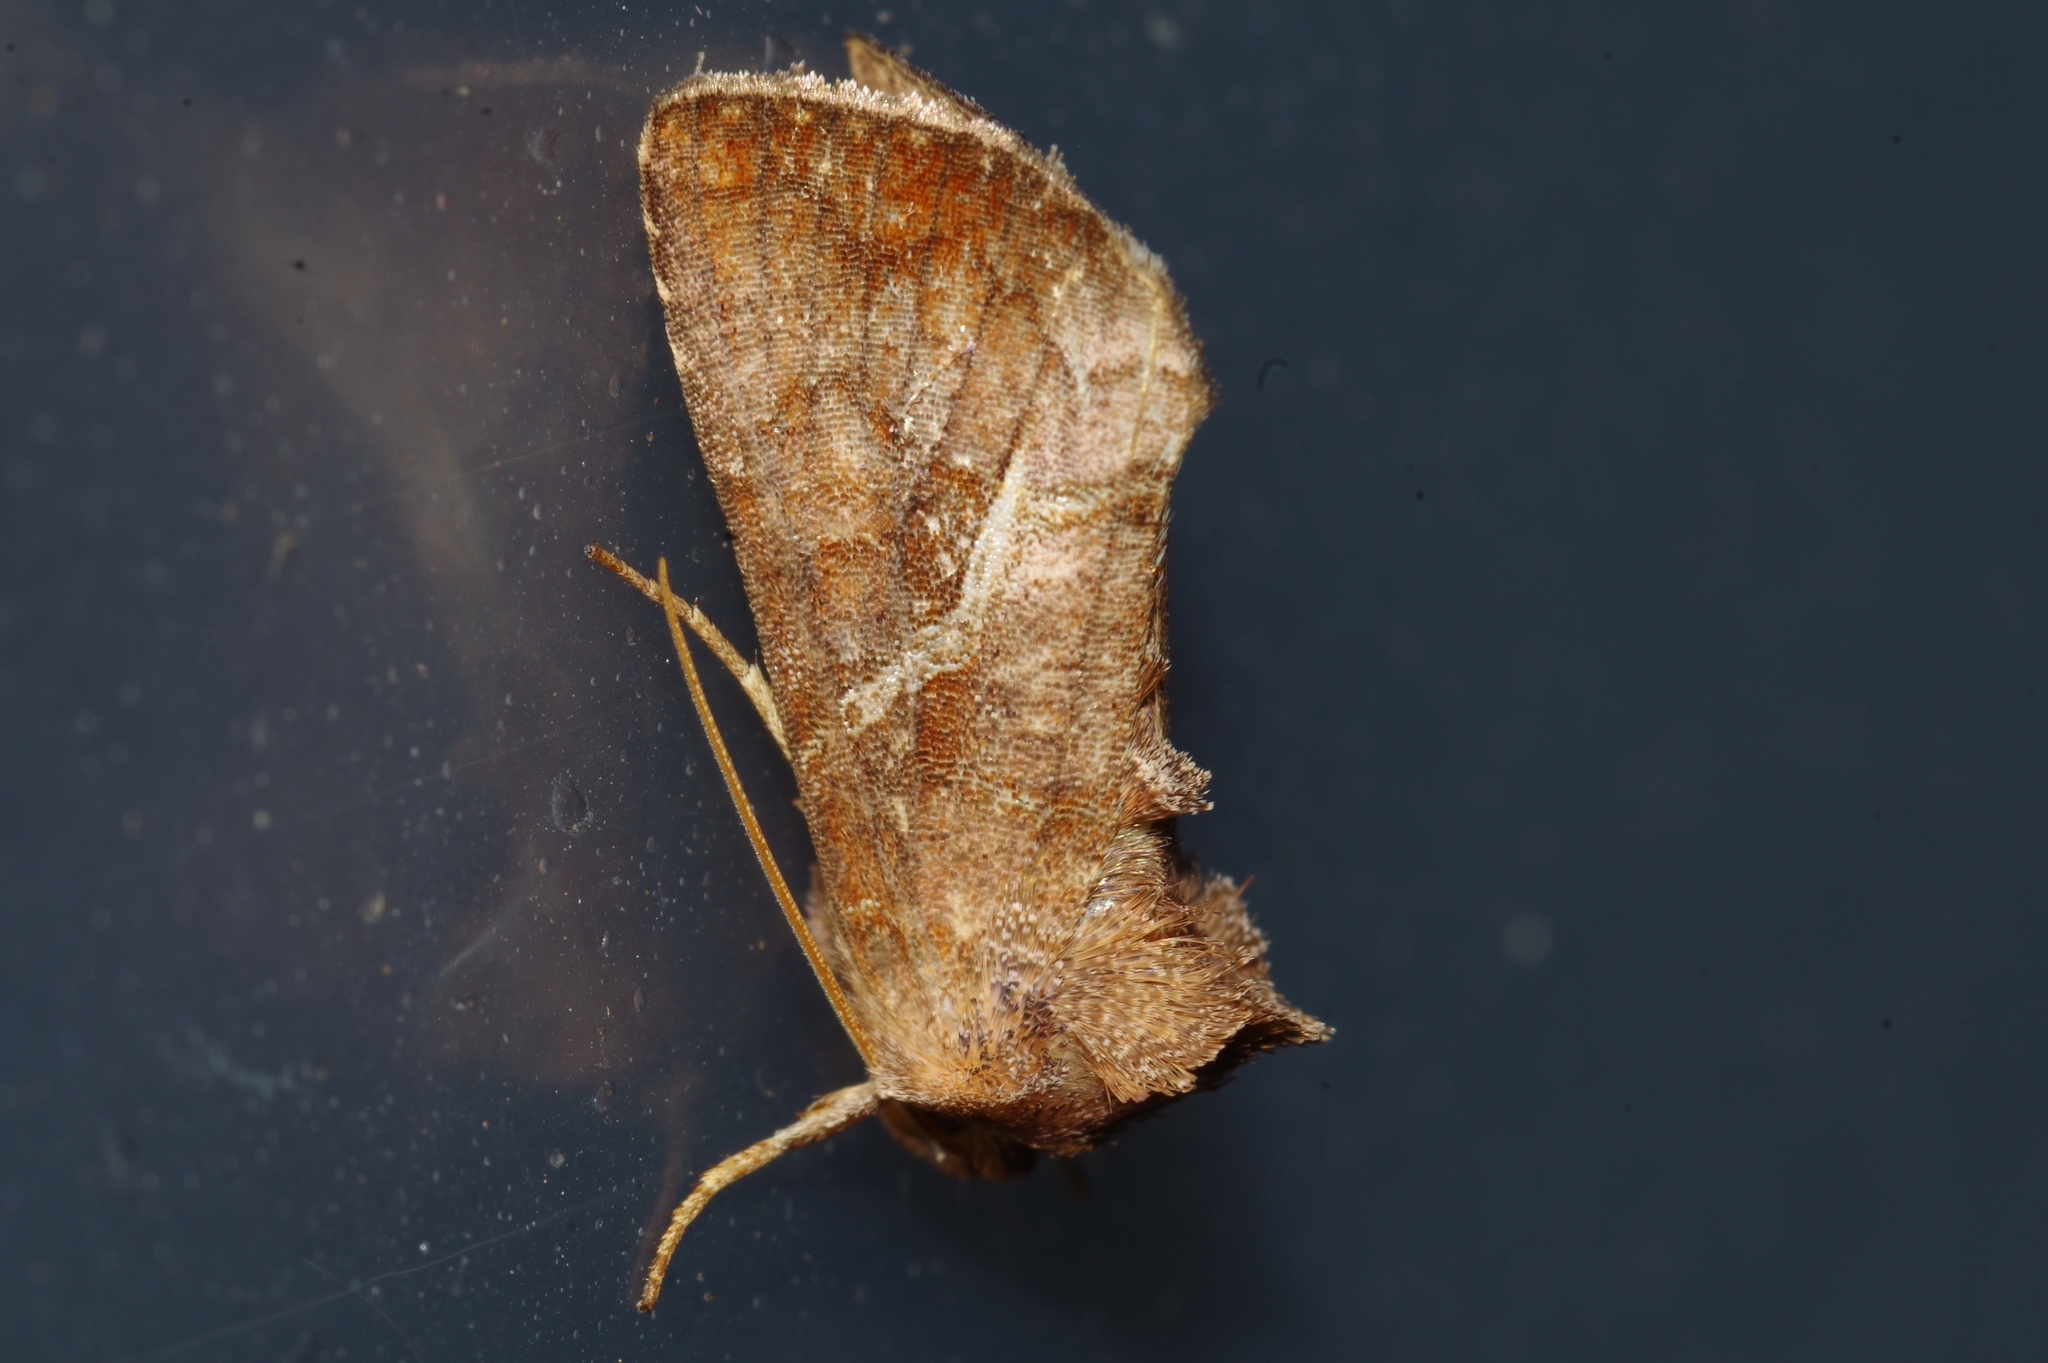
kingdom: Animalia
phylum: Arthropoda
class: Insecta
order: Lepidoptera
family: Noctuidae
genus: Zonoplusia
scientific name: Zonoplusia ochreata
